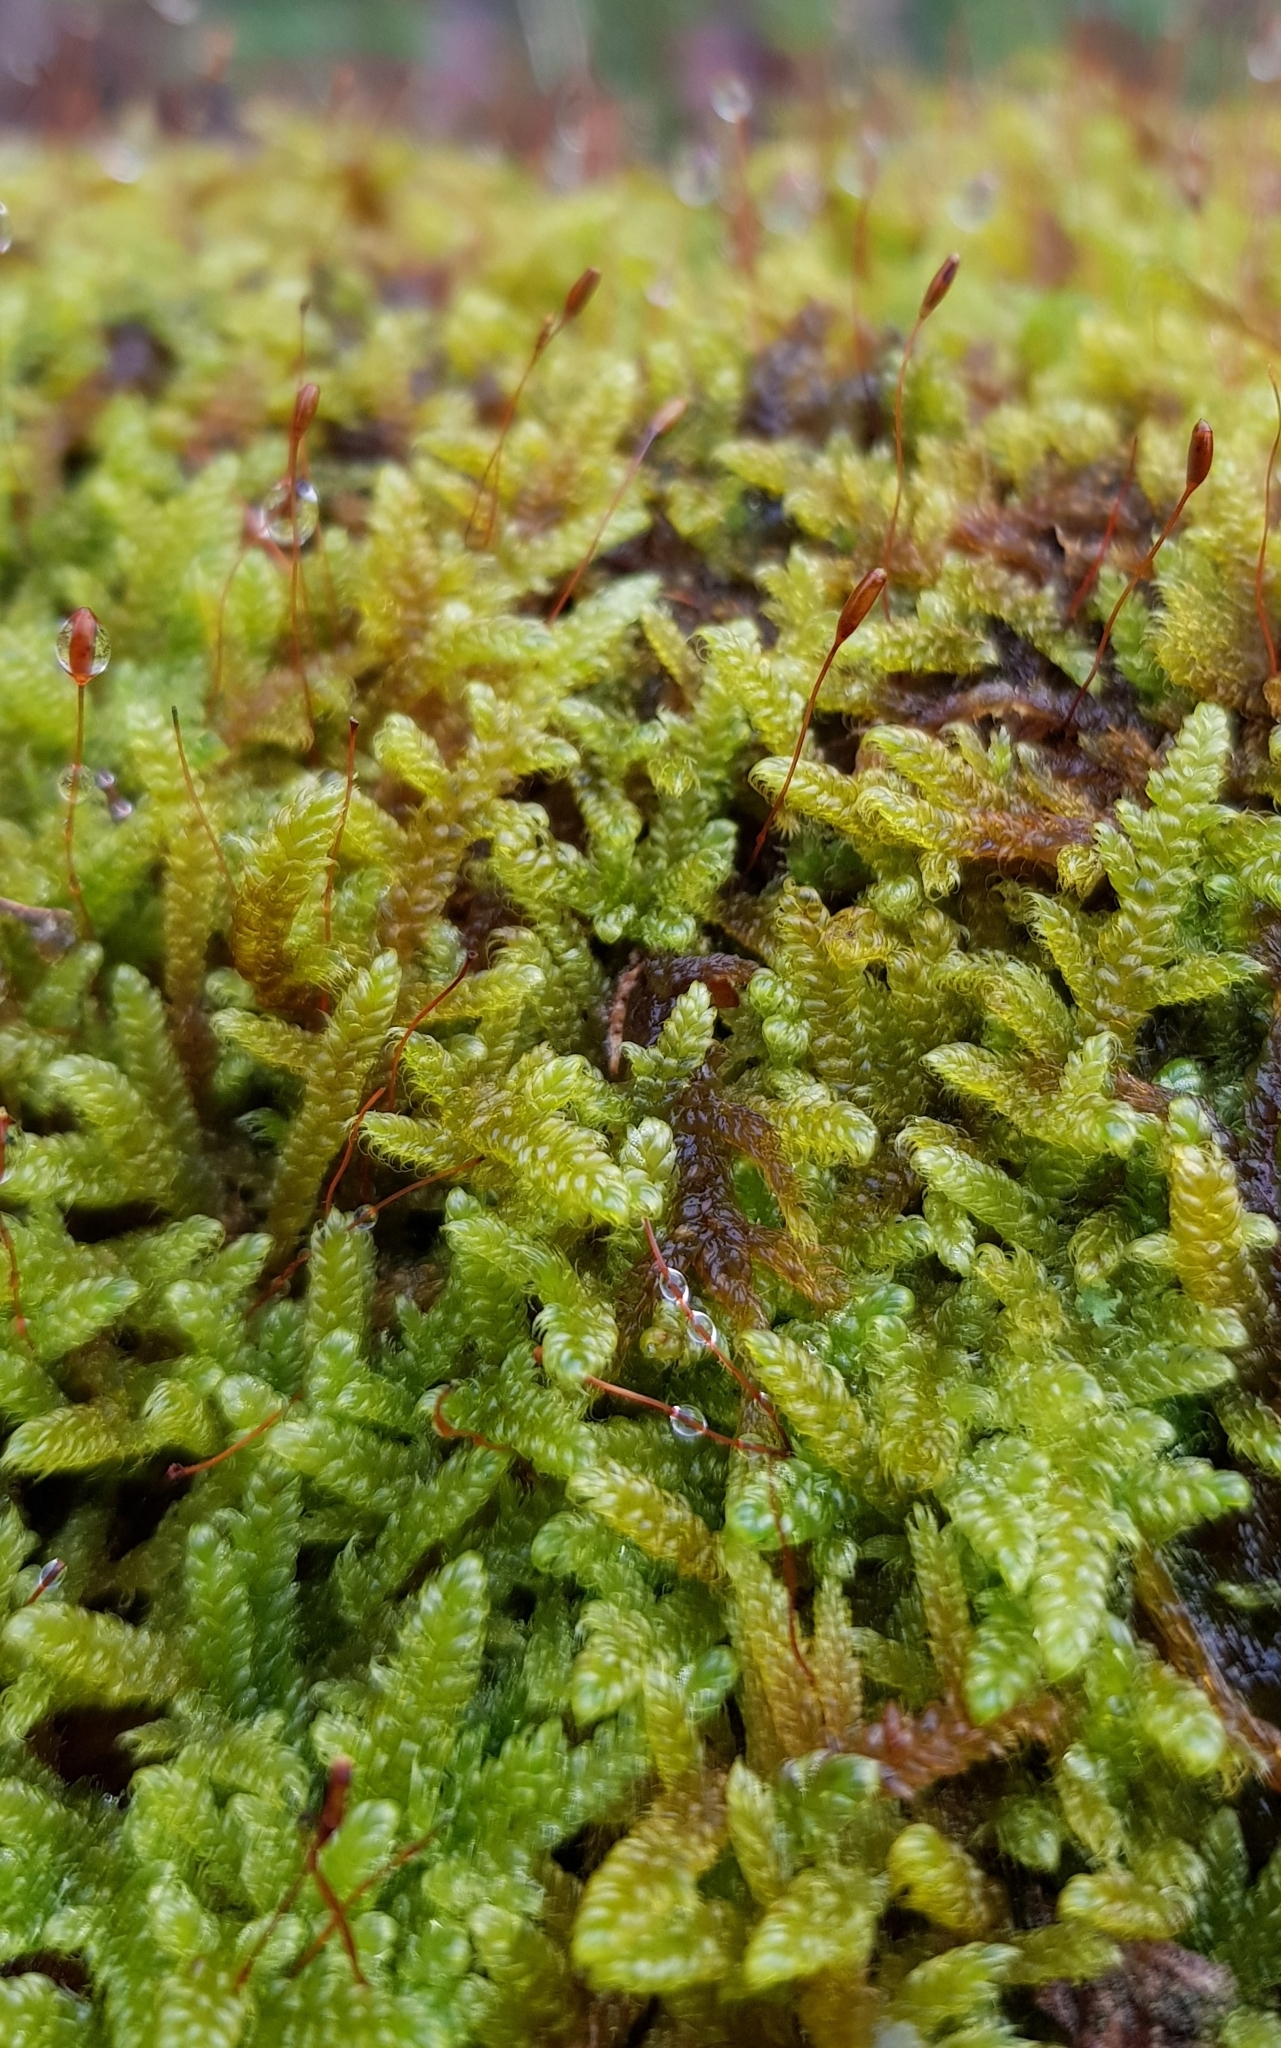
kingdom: Plantae
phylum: Bryophyta
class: Bryopsida
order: Hypnales
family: Hypnaceae
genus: Hypnum
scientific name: Hypnum cupressiforme
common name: Cypress-leaved plait-moss
